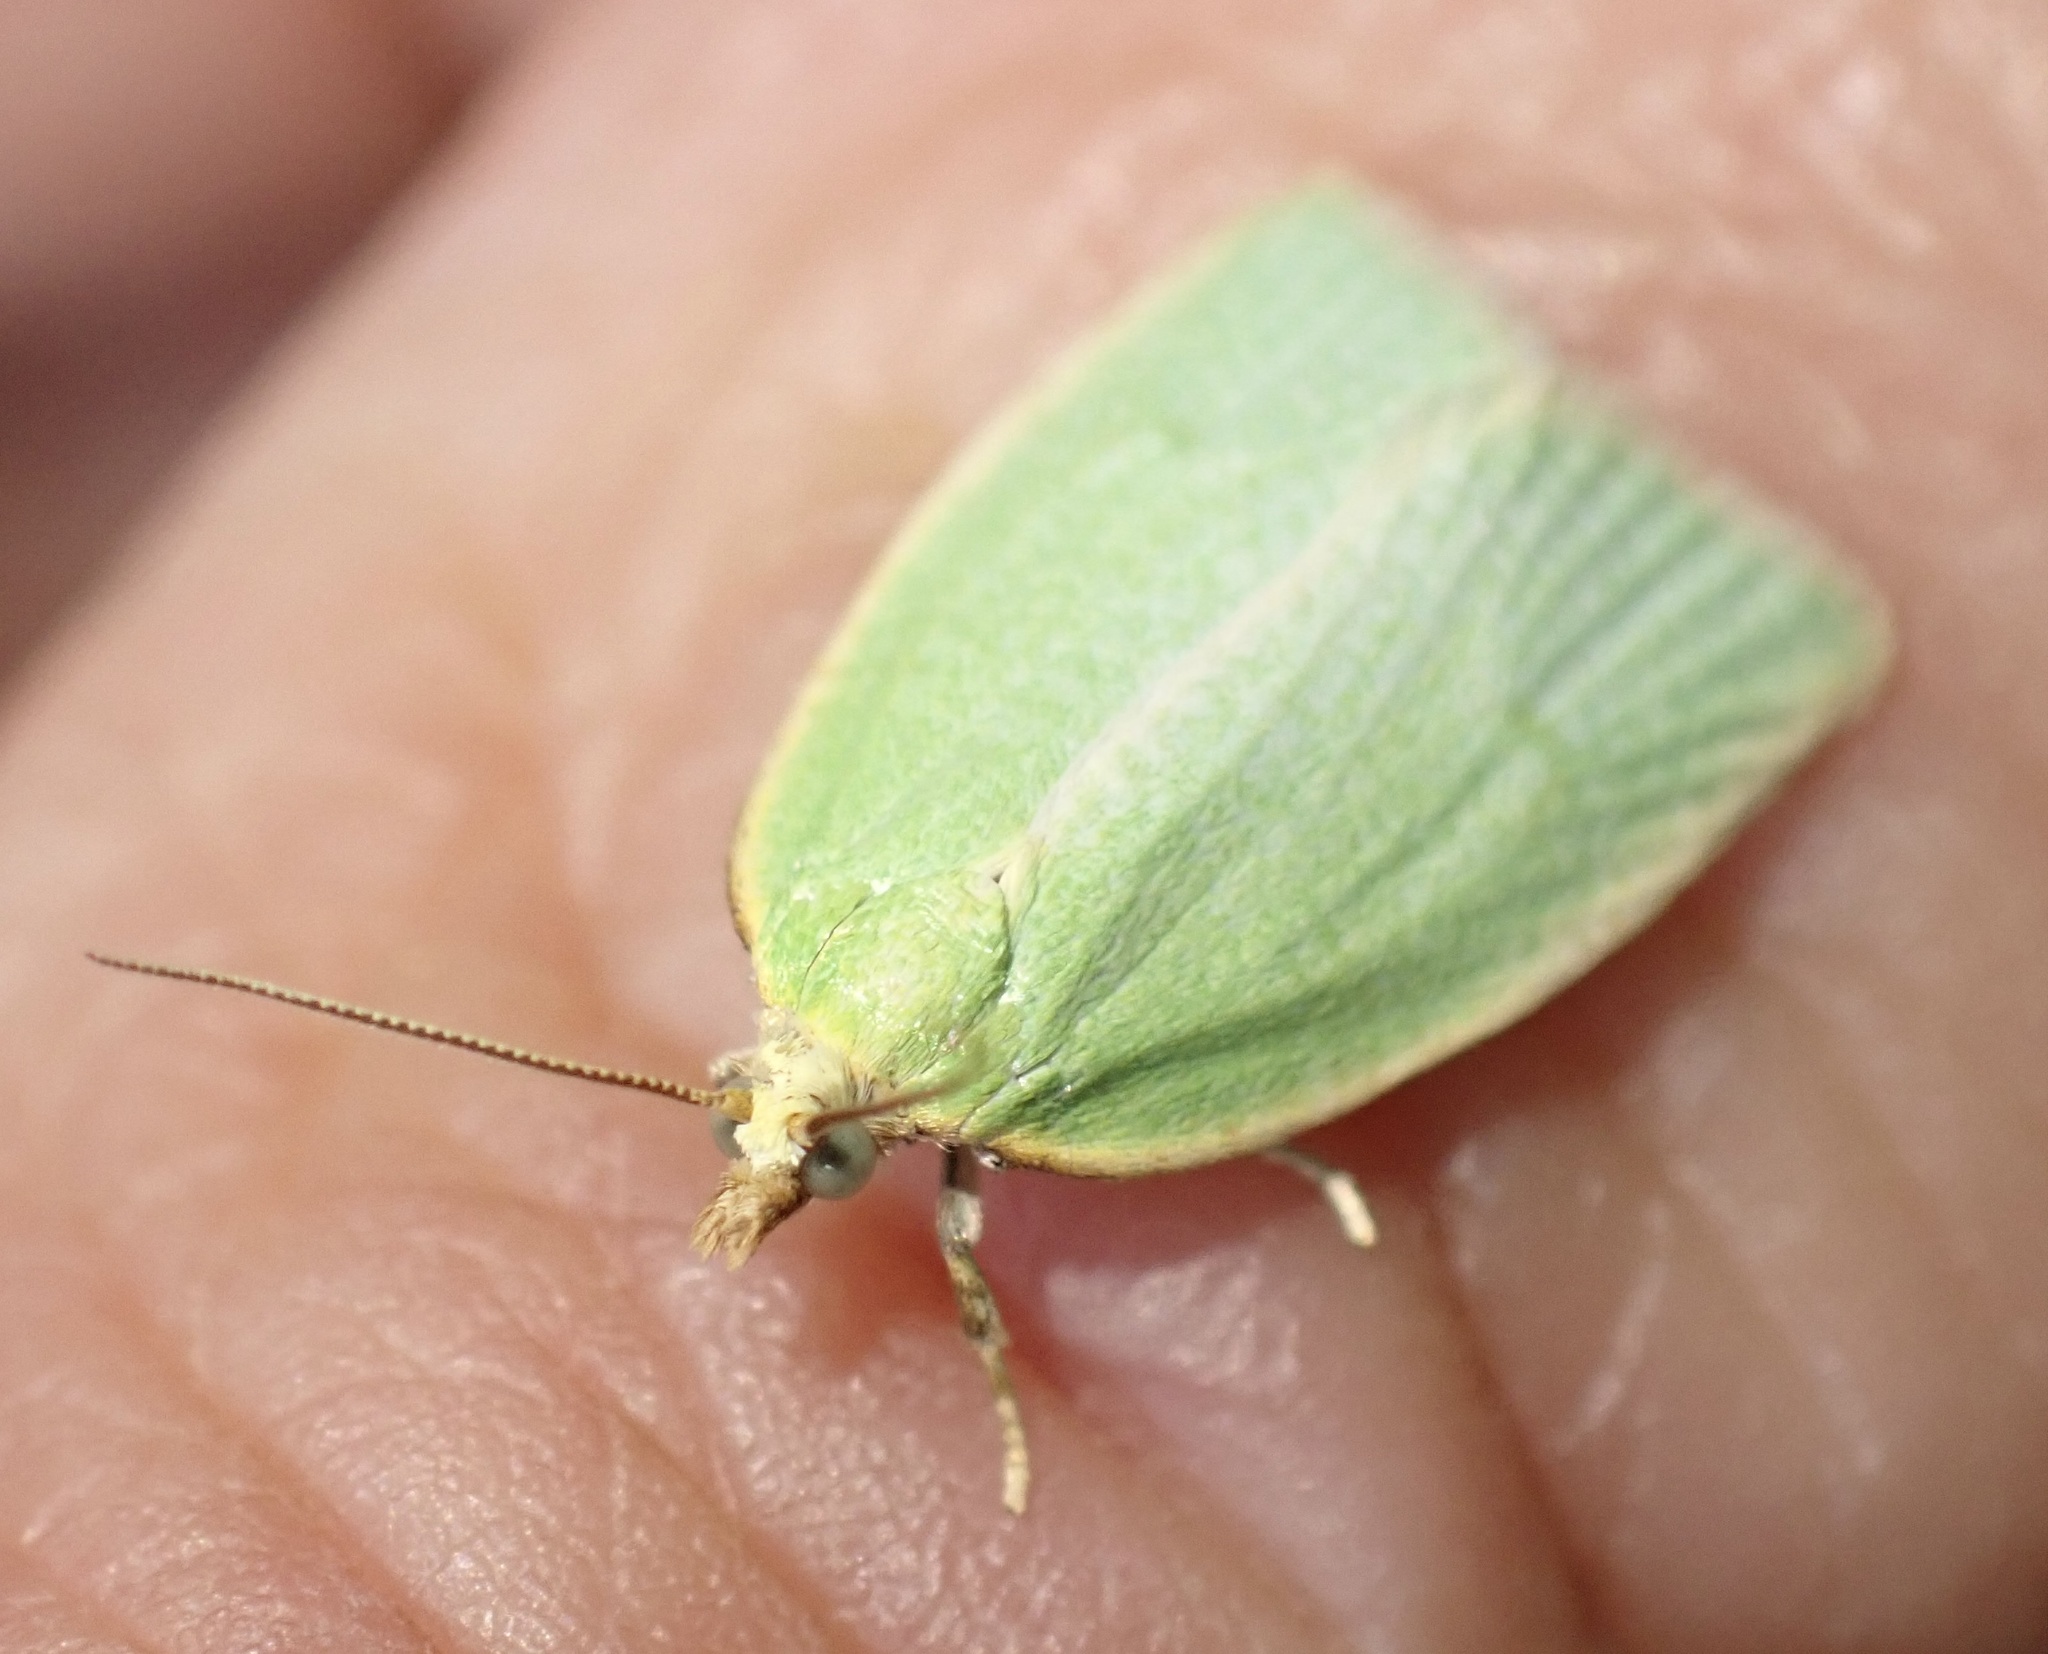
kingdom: Animalia
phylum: Arthropoda
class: Insecta
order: Lepidoptera
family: Tortricidae
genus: Tortrix
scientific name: Tortrix viridana
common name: Green oak tortrix
